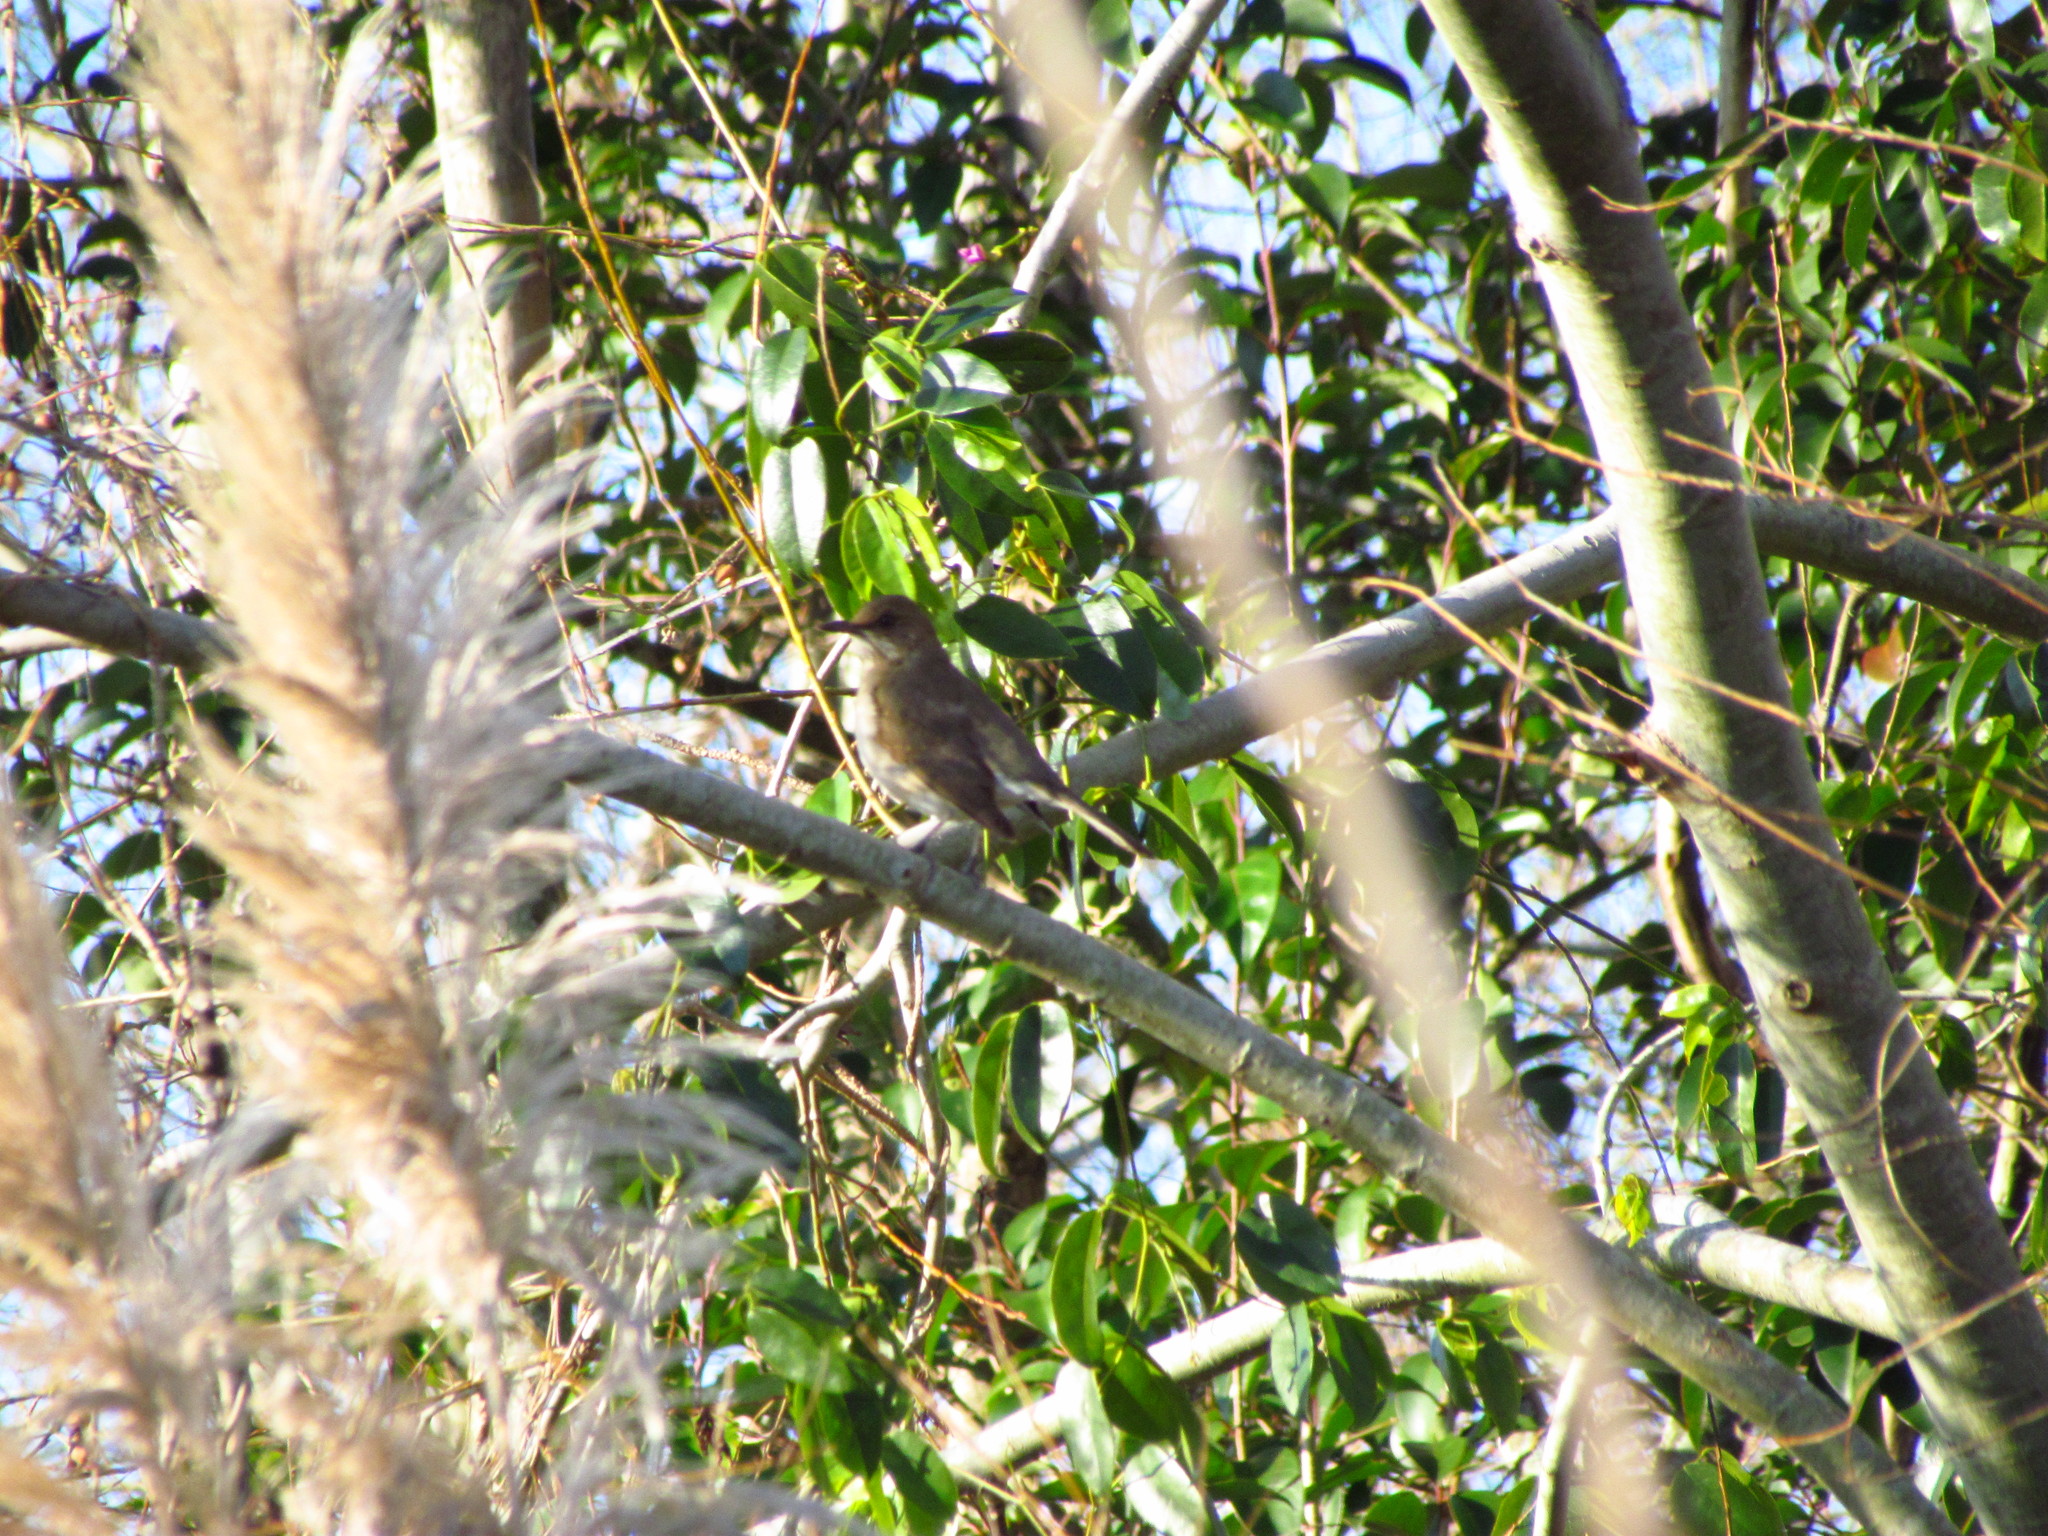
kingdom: Animalia
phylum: Chordata
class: Aves
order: Passeriformes
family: Turdidae
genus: Turdus
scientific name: Turdus amaurochalinus
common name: Creamy-bellied thrush
